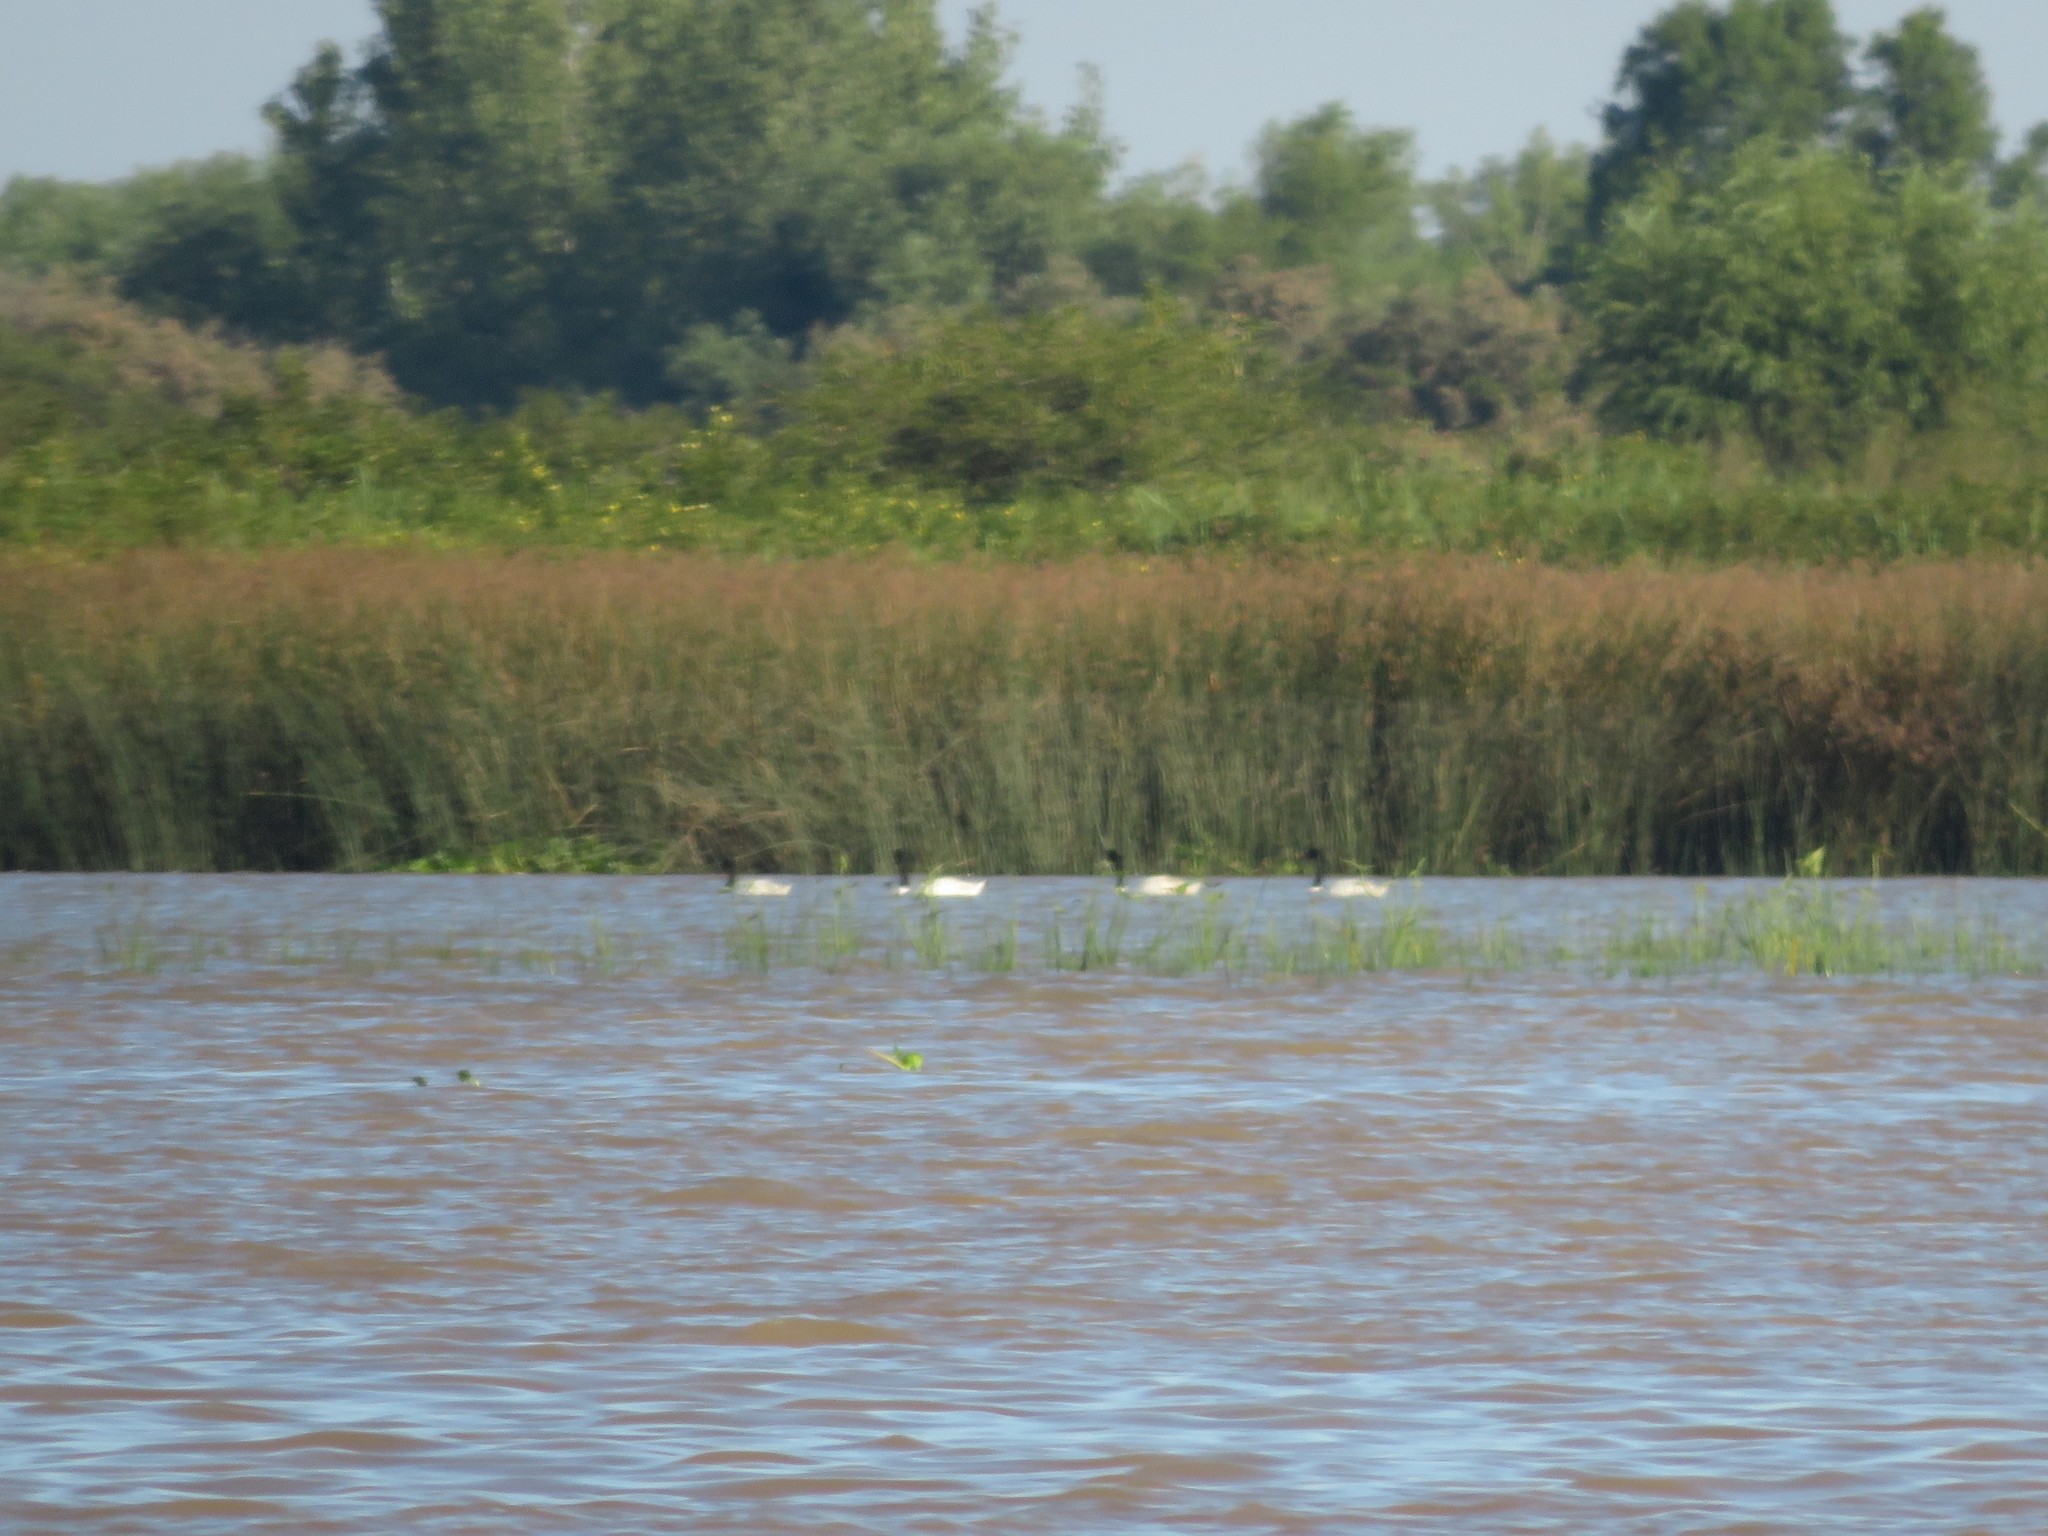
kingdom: Animalia
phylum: Chordata
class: Aves
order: Anseriformes
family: Anatidae
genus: Cygnus
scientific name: Cygnus melancoryphus
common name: Black-necked swan
